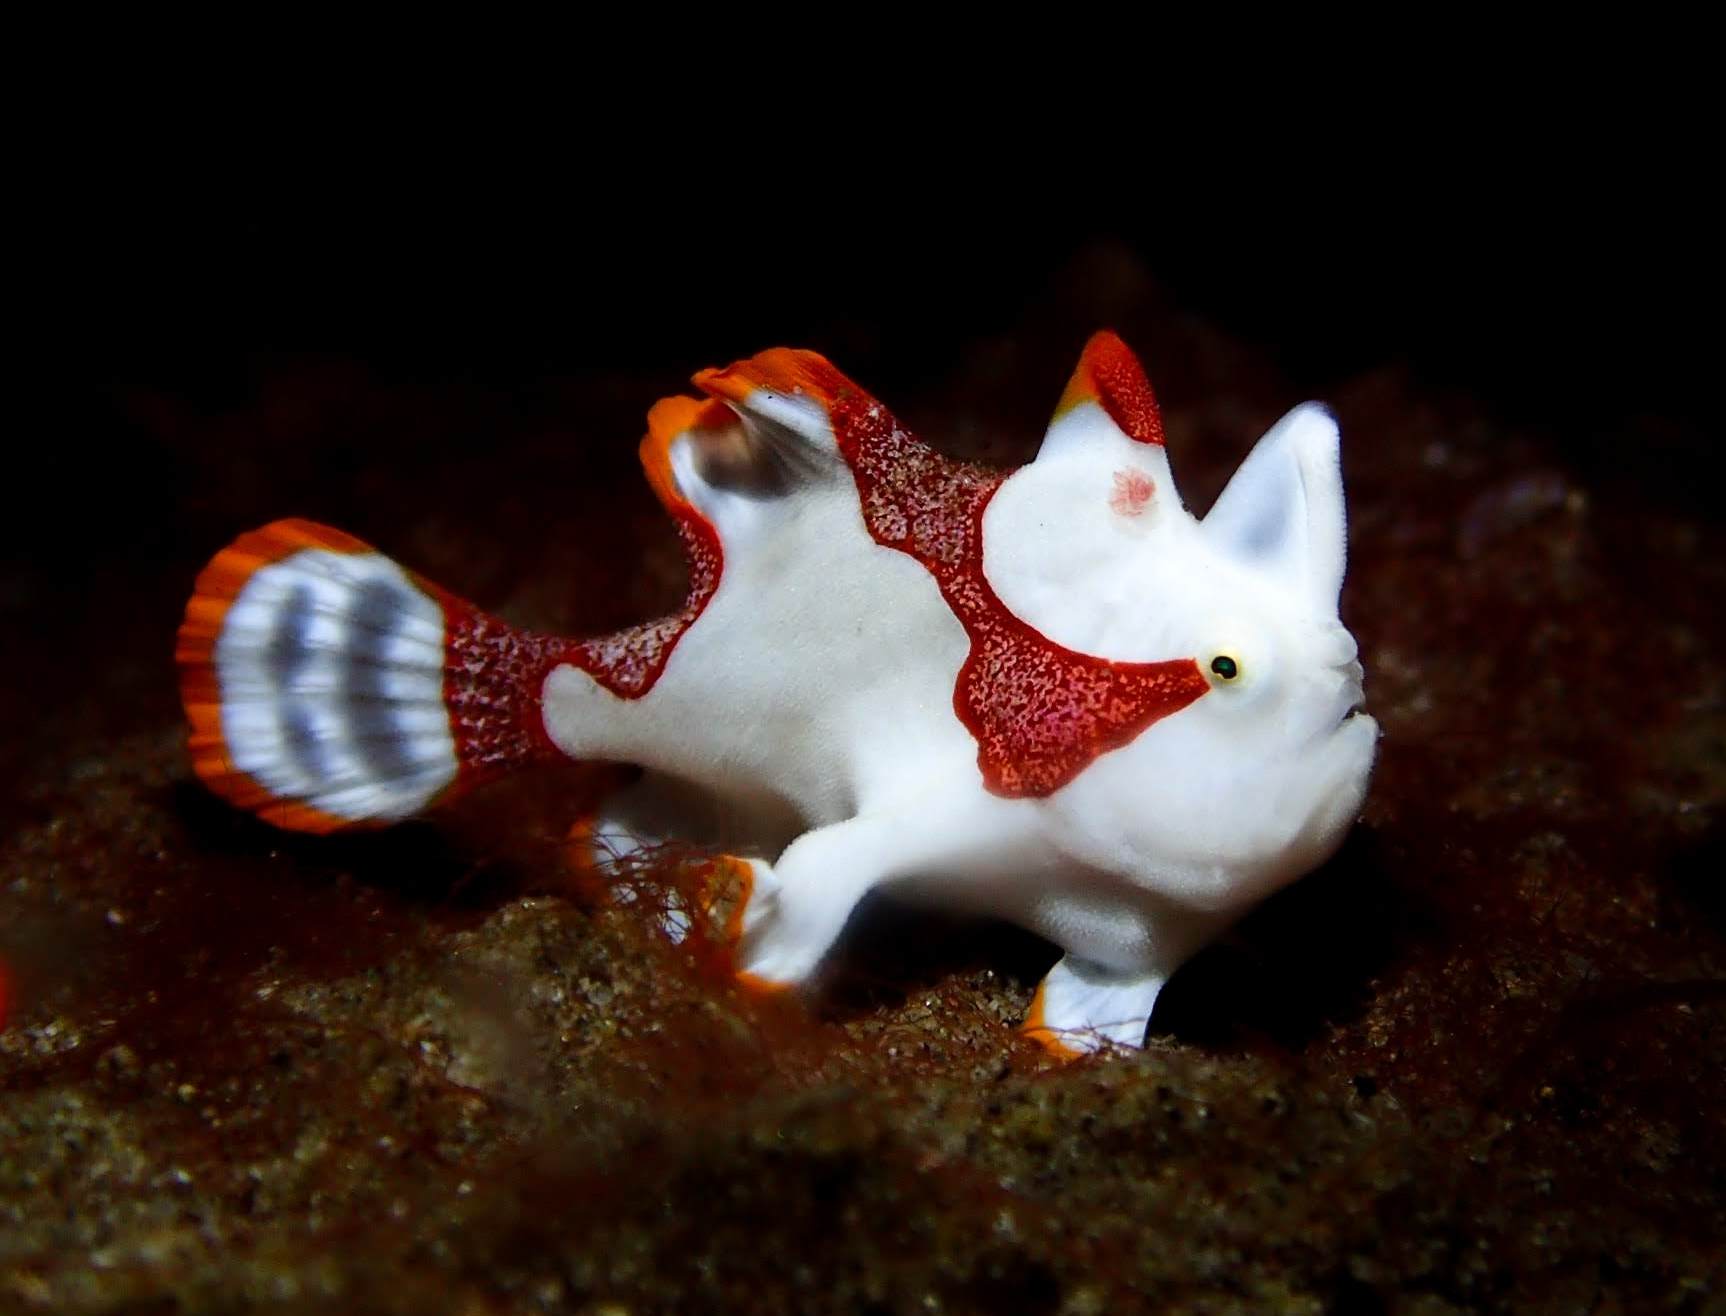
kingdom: Animalia
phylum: Chordata
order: Lophiiformes
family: Antennariidae
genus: Antennarius
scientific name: Antennarius maculatus
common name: Warty frogfish
